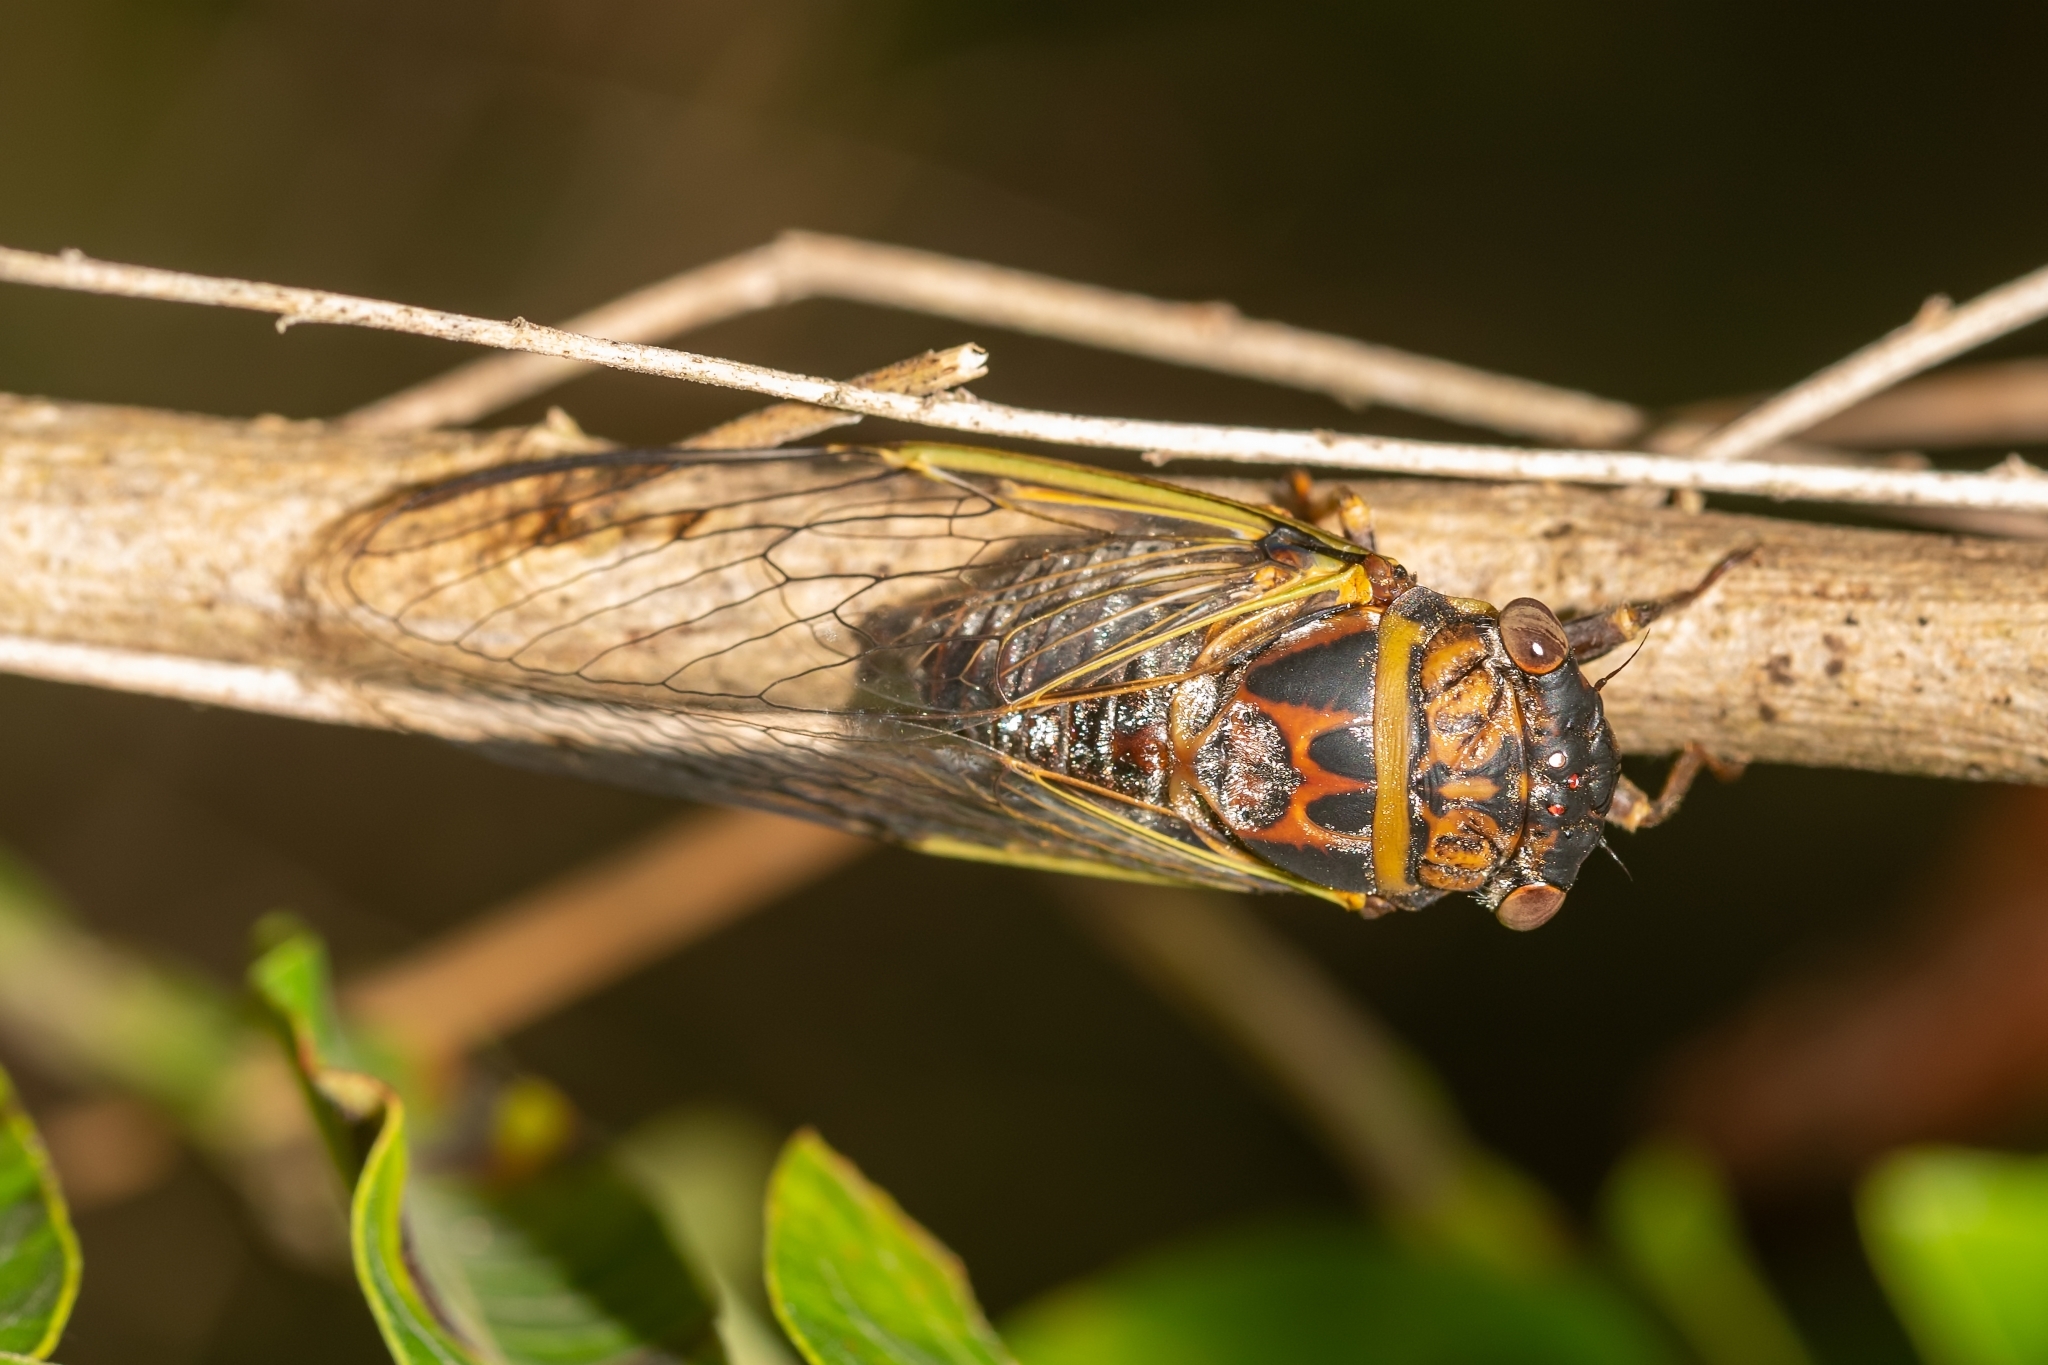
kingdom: Animalia
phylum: Arthropoda
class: Insecta
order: Hemiptera
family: Cicadidae
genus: Diceroprocta
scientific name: Diceroprocta olympusa
